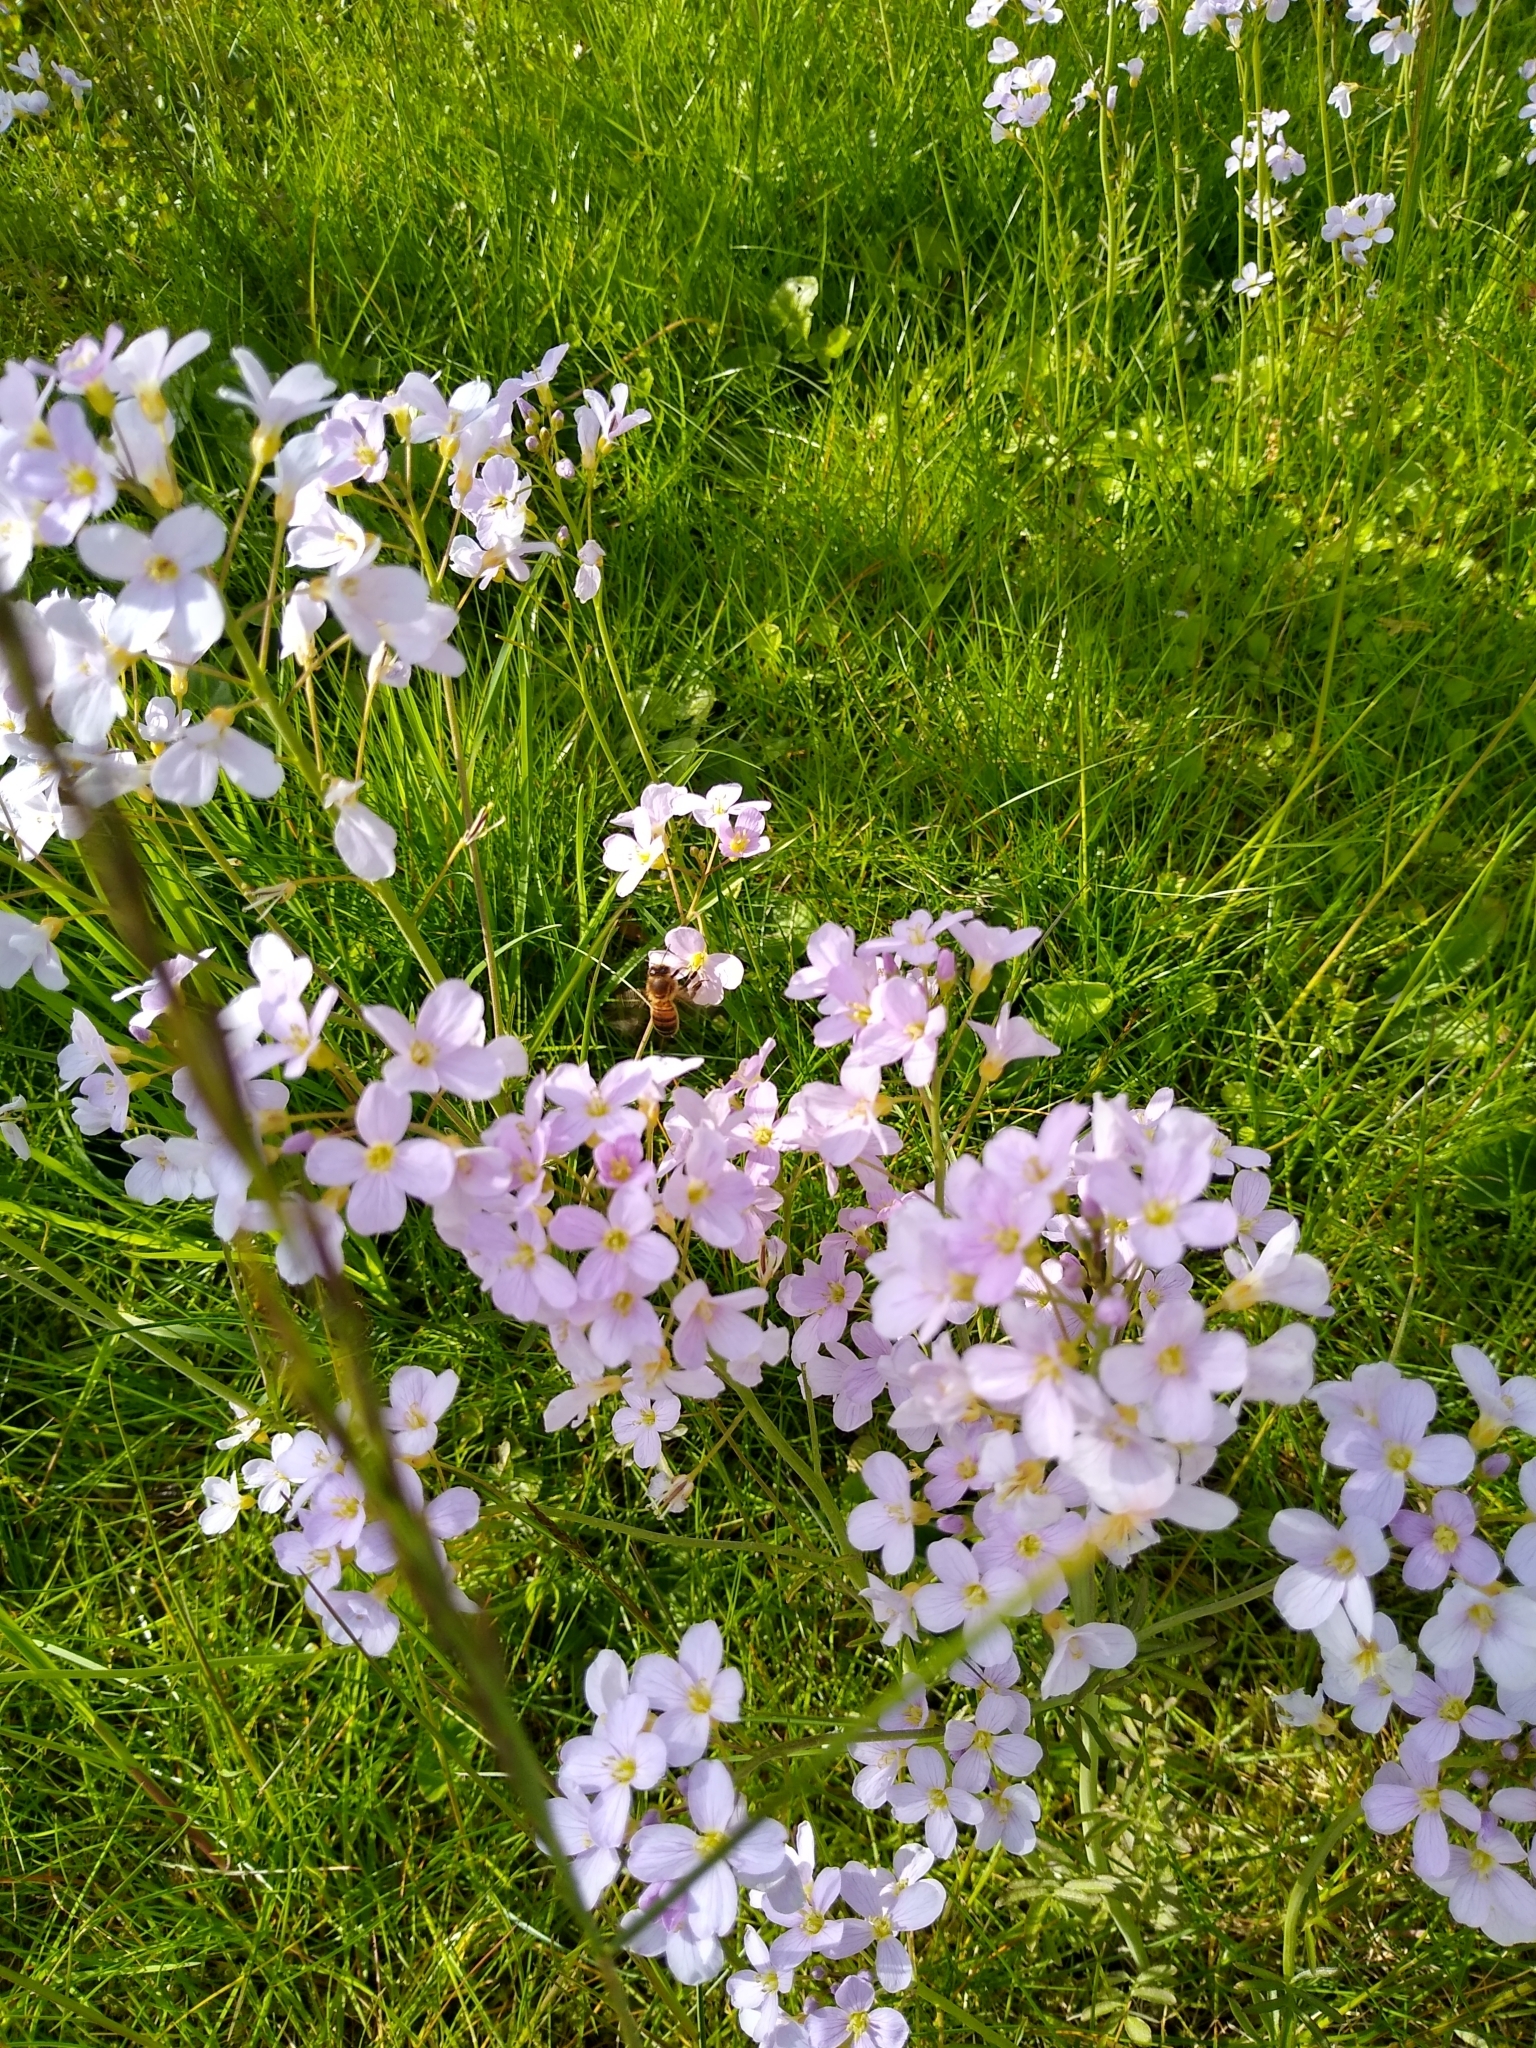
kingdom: Plantae
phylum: Tracheophyta
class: Magnoliopsida
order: Brassicales
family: Brassicaceae
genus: Cardamine
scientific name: Cardamine pratensis
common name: Cuckoo flower
